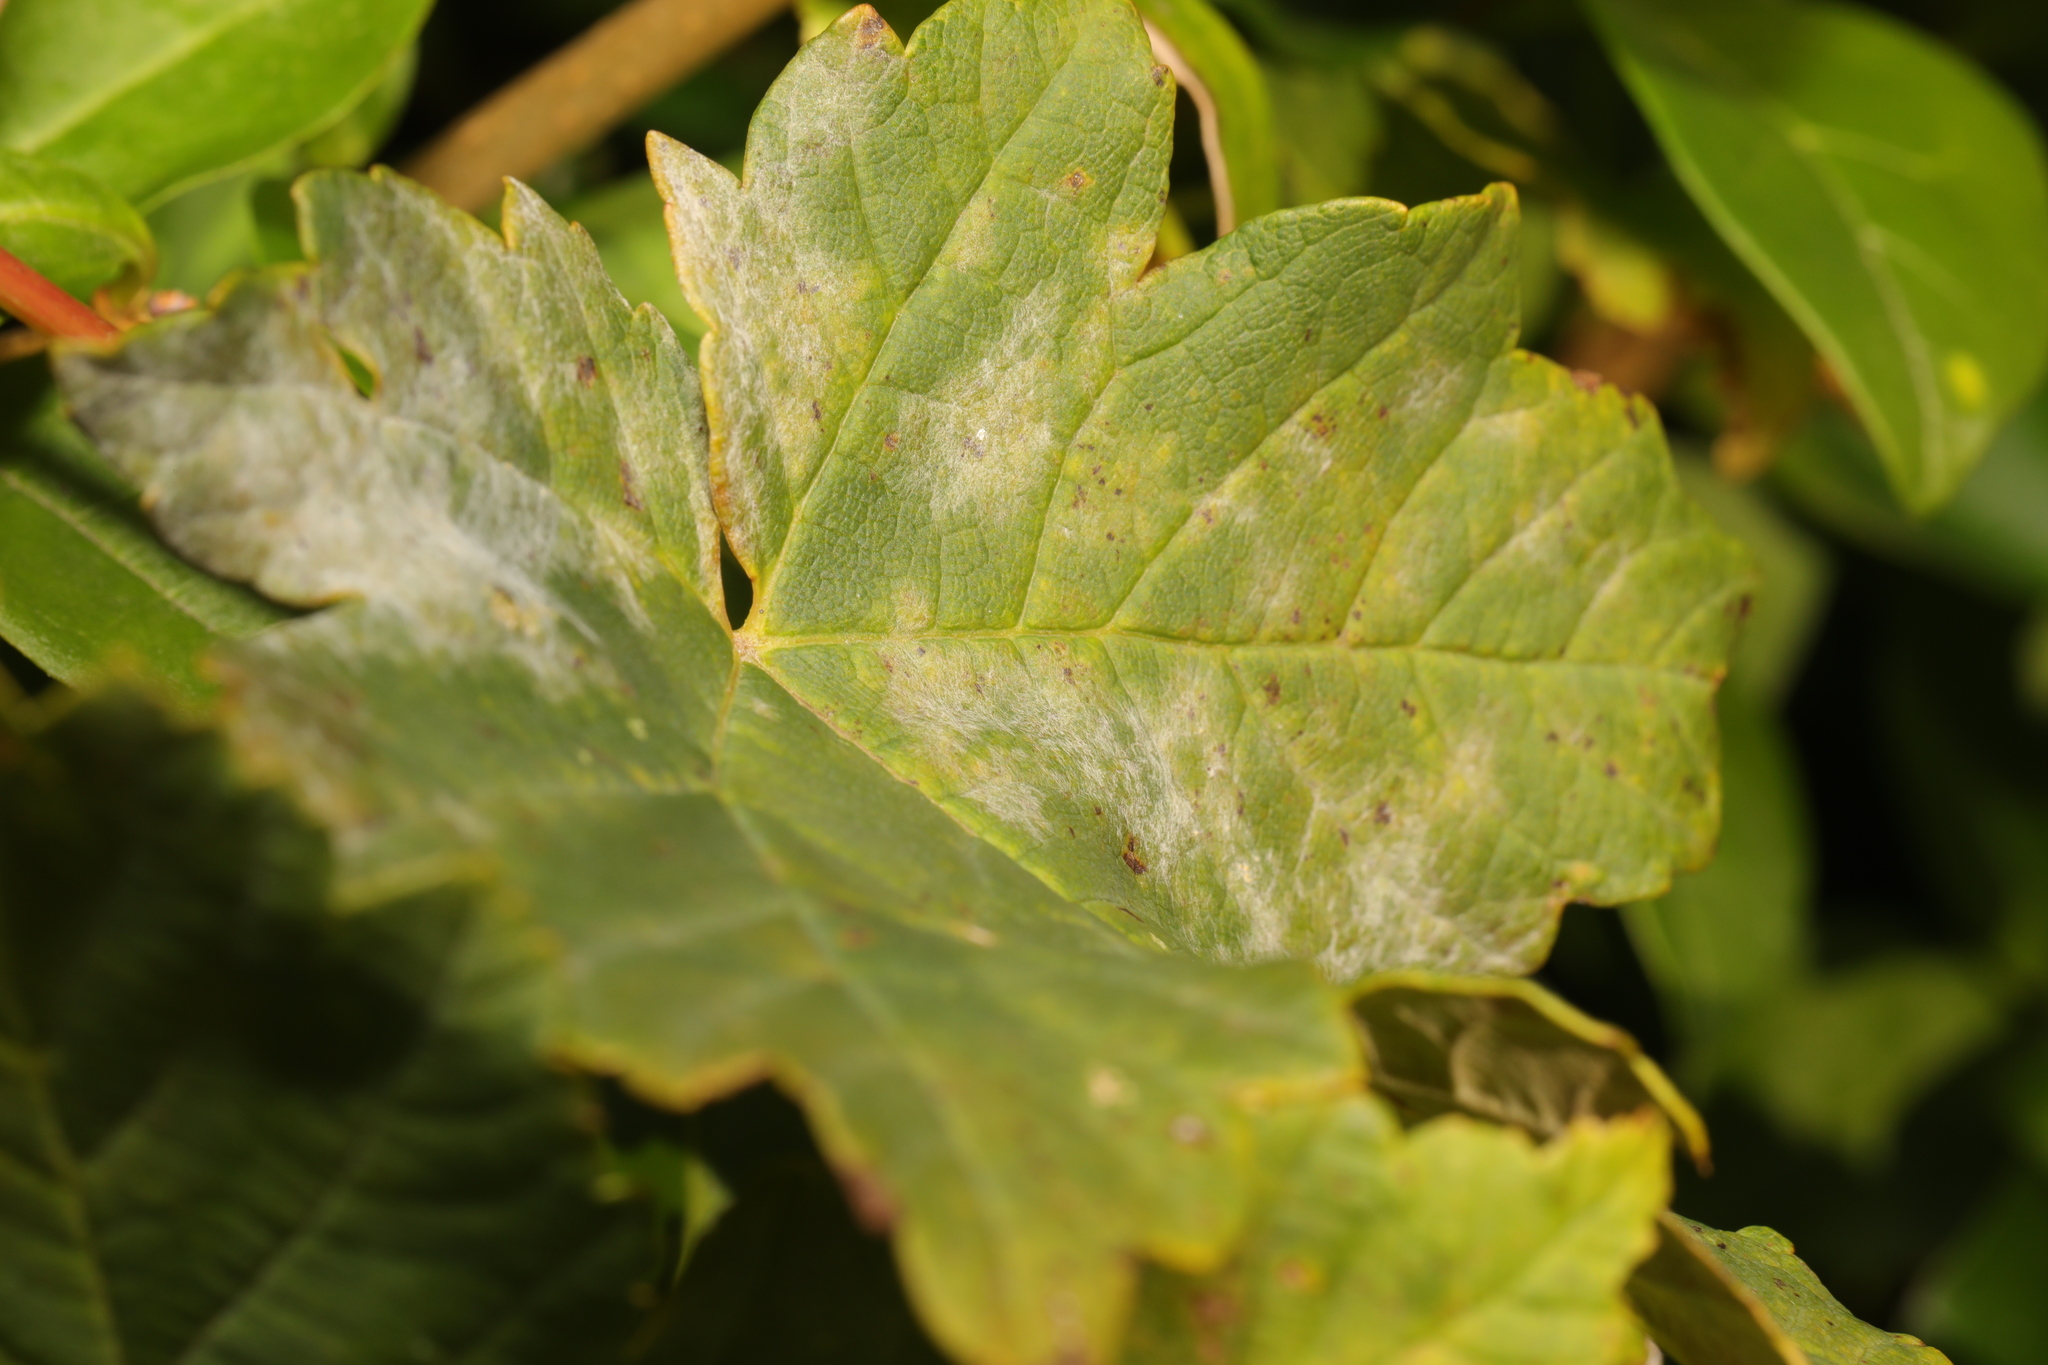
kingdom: Fungi
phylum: Ascomycota
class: Leotiomycetes
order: Helotiales
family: Erysiphaceae
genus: Sawadaea
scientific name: Sawadaea bicornis
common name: Maple mildew
